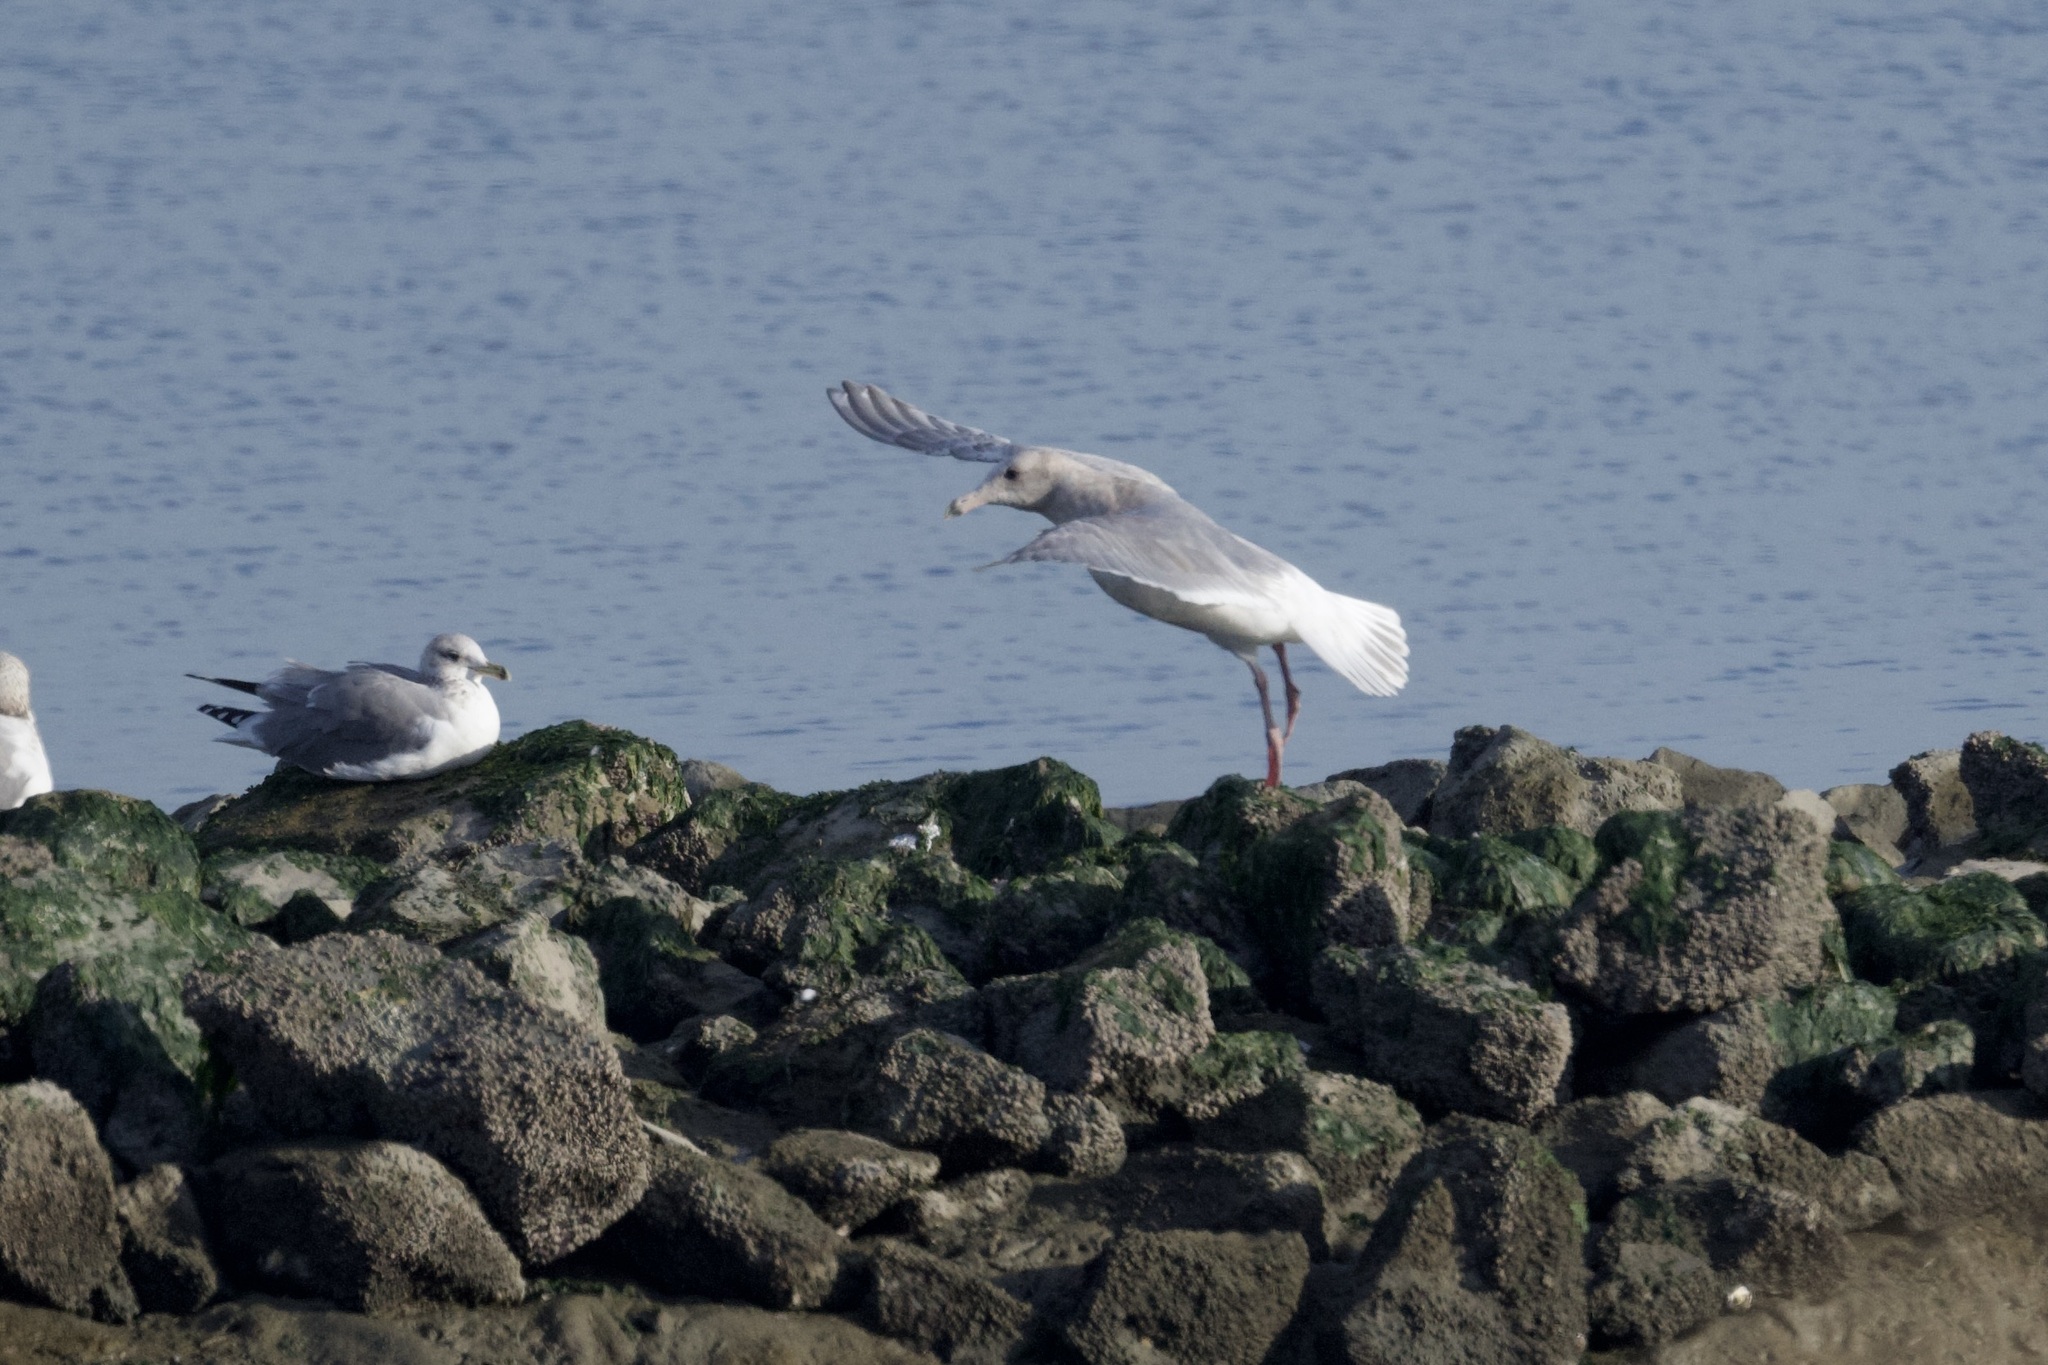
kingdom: Animalia
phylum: Chordata
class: Aves
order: Charadriiformes
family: Laridae
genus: Larus
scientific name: Larus glaucescens
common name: Glaucous-winged gull
